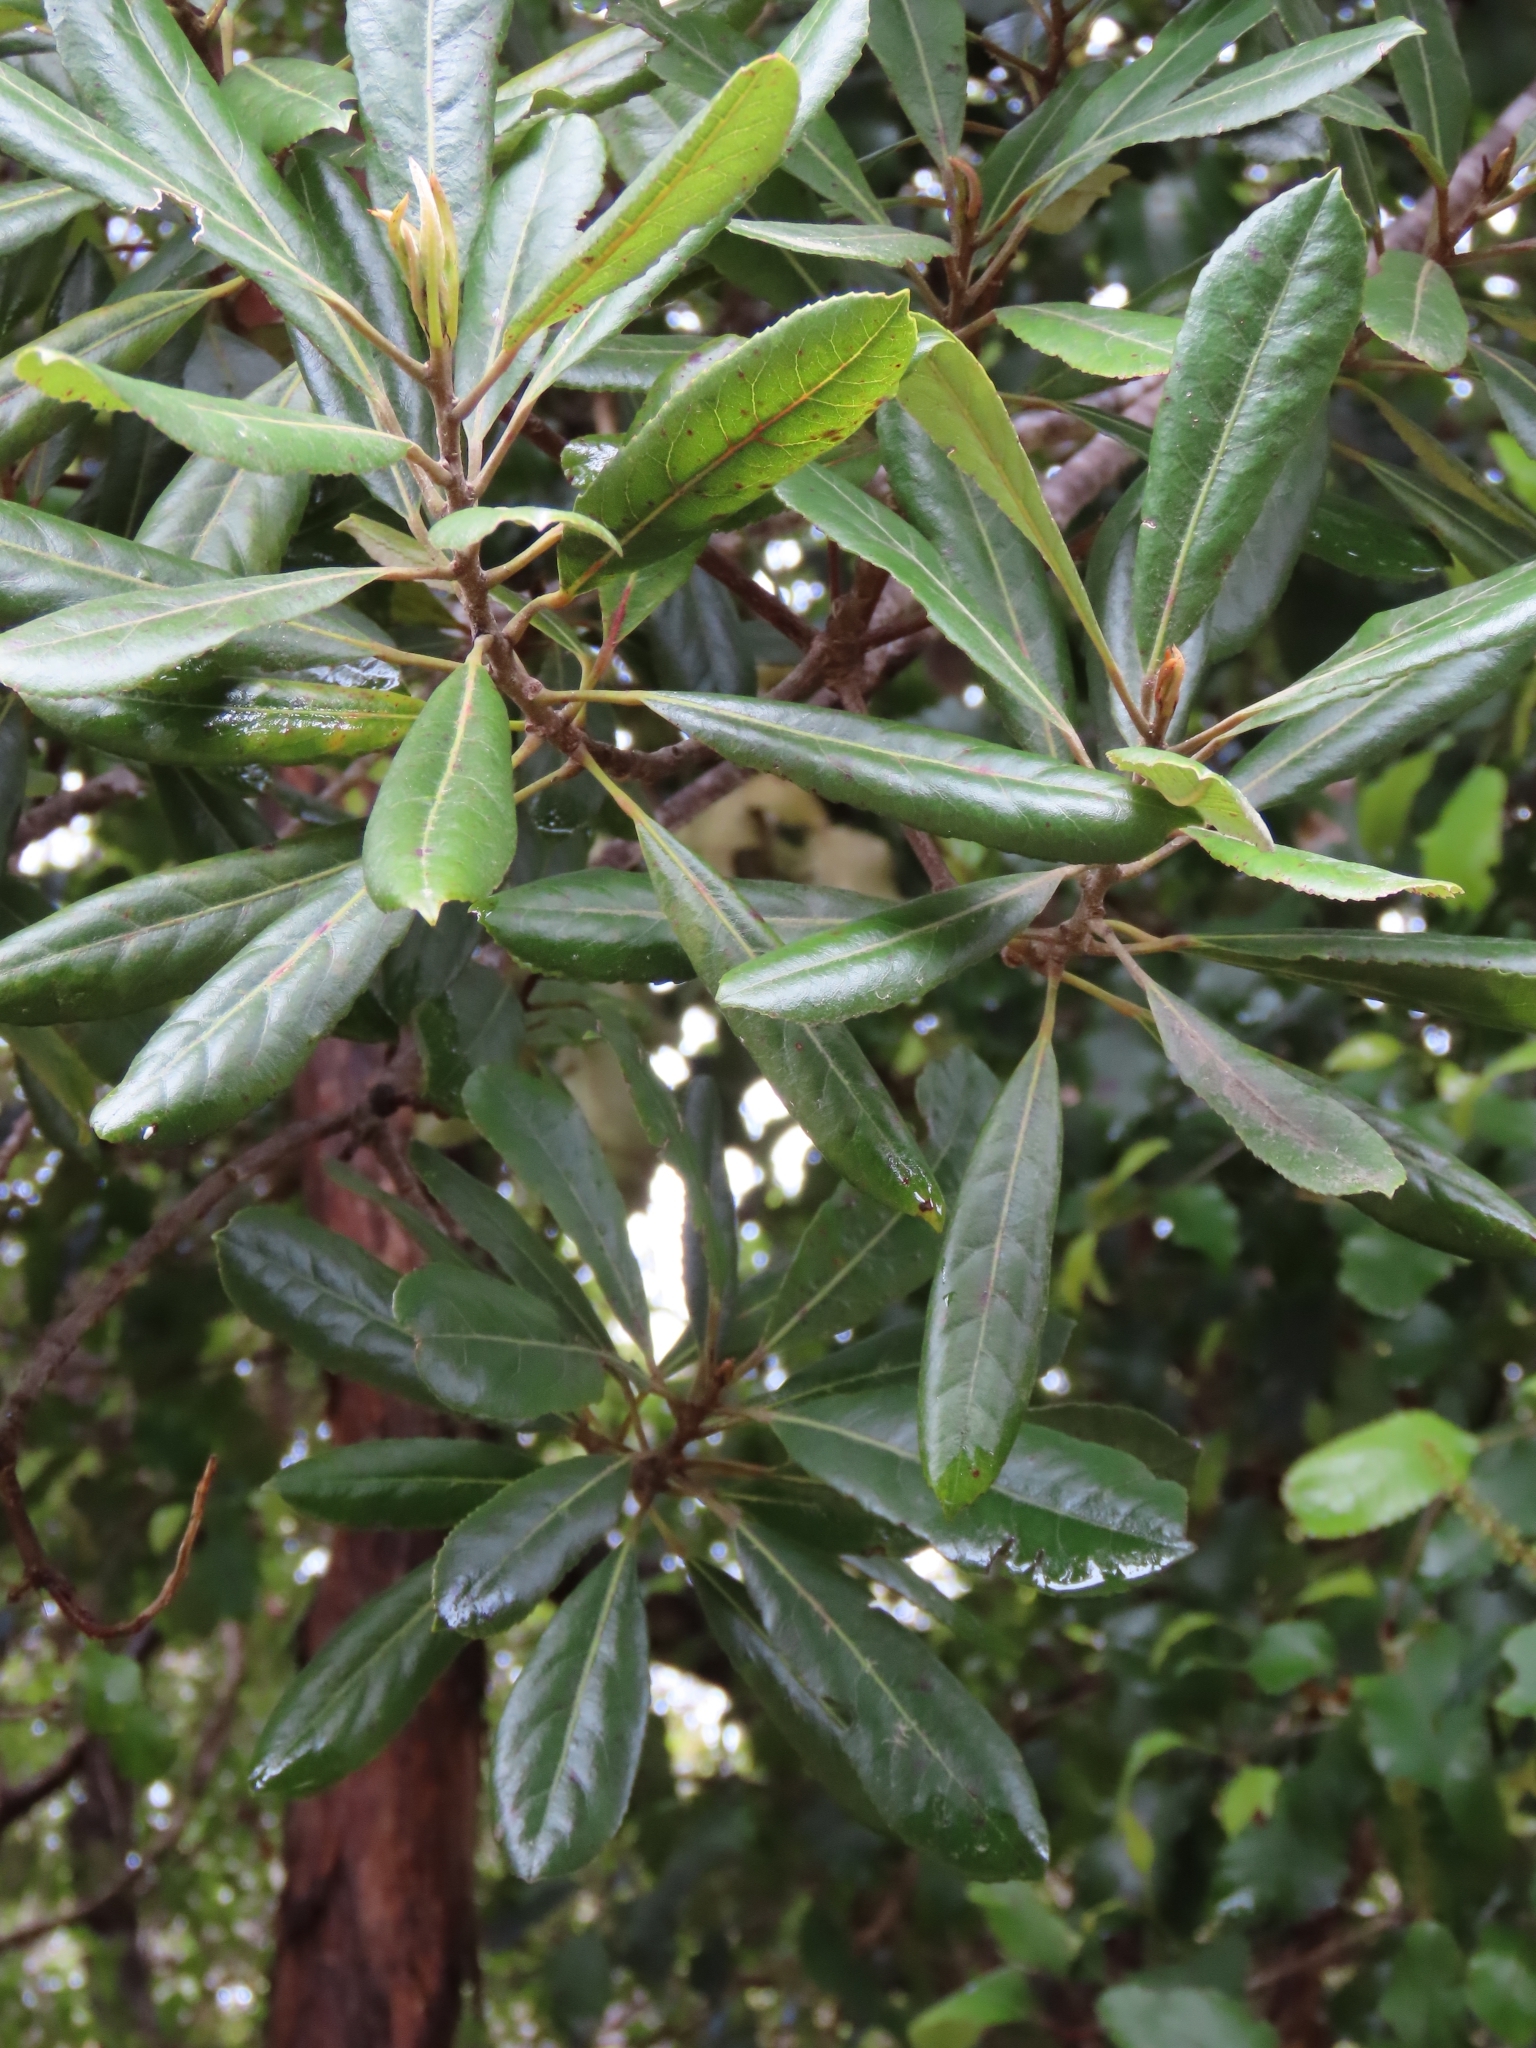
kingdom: Plantae
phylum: Tracheophyta
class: Magnoliopsida
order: Oxalidales
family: Elaeocarpaceae
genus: Elaeocarpus
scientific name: Elaeocarpus dentatus
